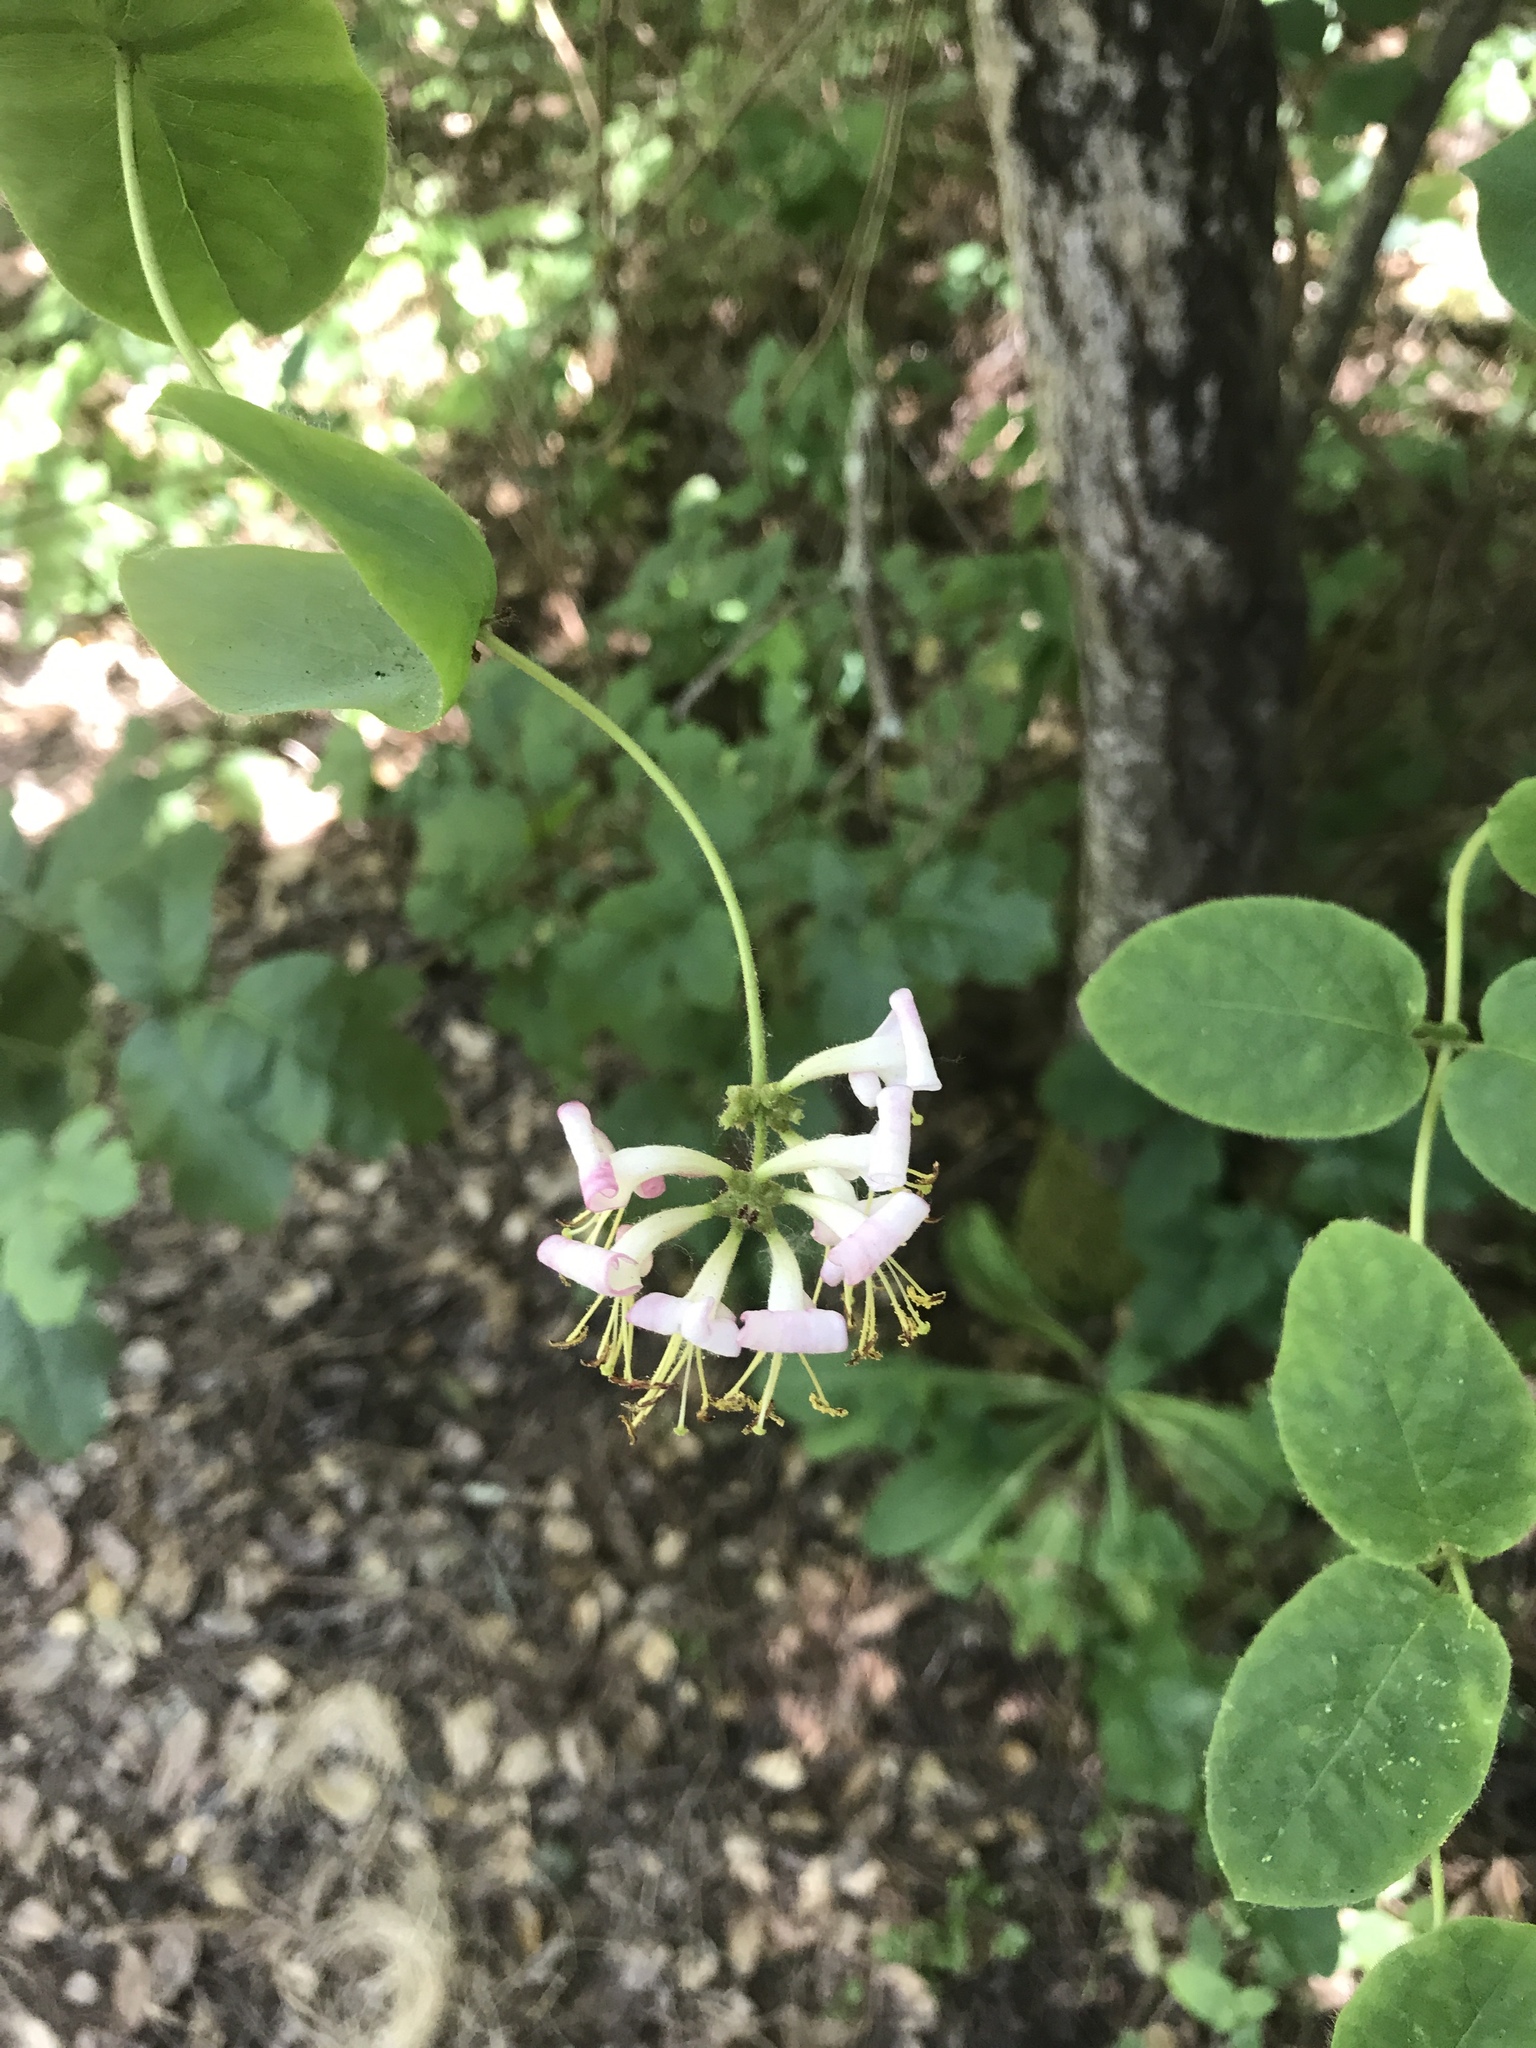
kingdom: Plantae
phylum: Tracheophyta
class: Magnoliopsida
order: Dipsacales
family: Caprifoliaceae
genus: Lonicera
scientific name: Lonicera hispidula
